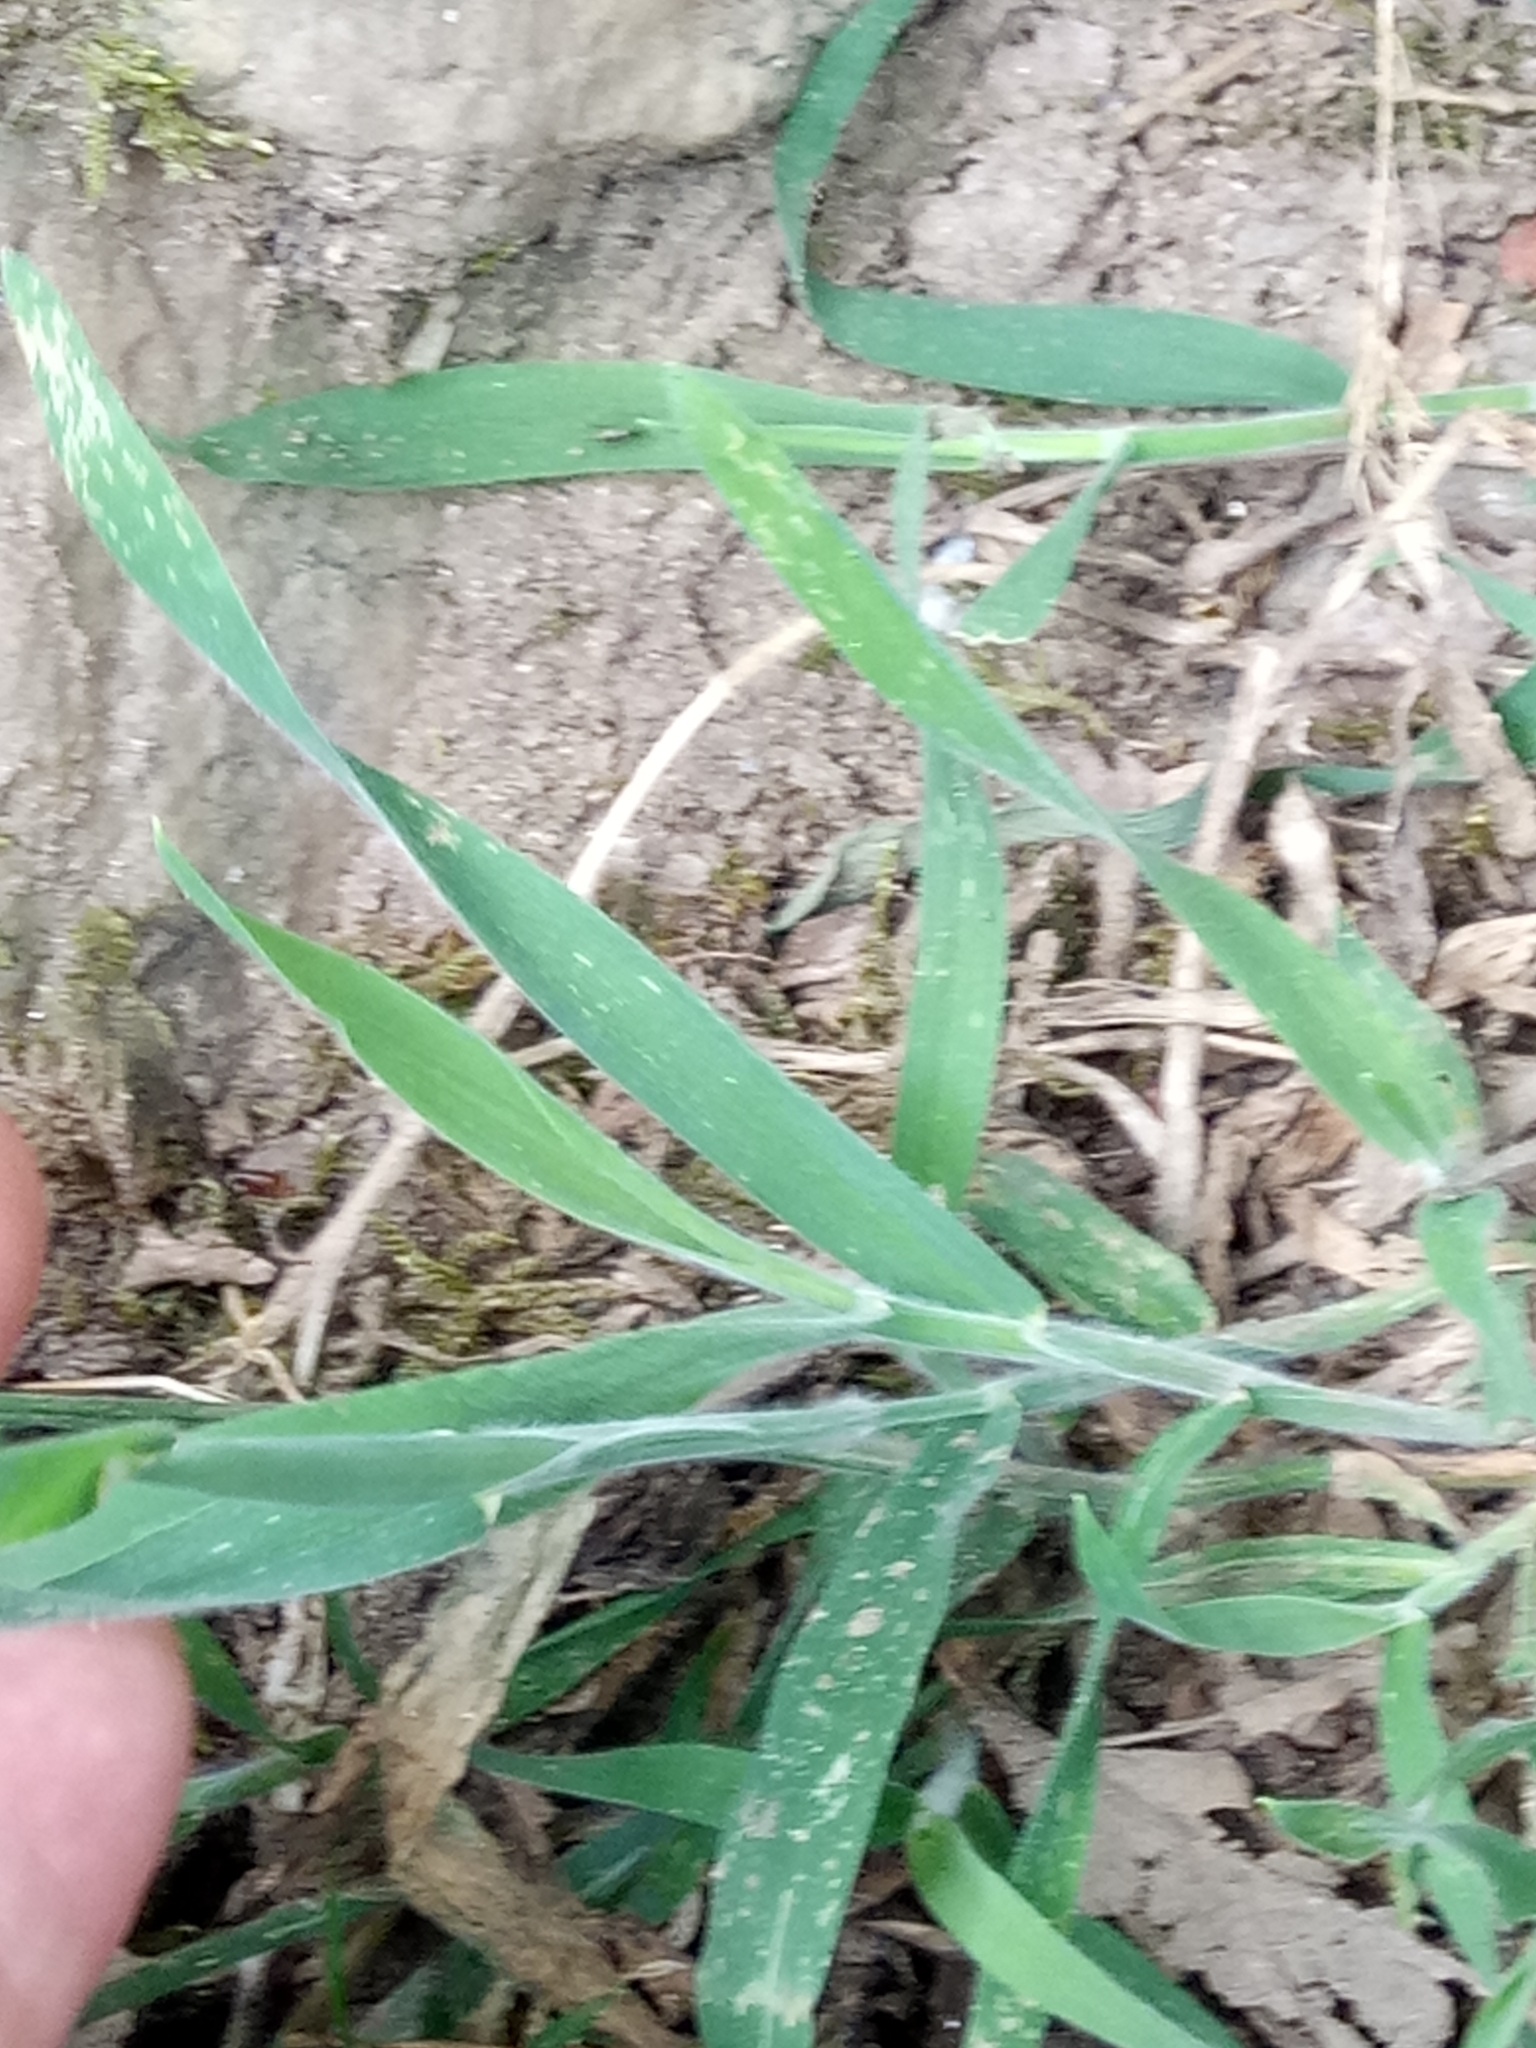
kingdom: Plantae
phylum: Tracheophyta
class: Liliopsida
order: Poales
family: Poaceae
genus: Holcus
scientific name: Holcus lanatus
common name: Yorkshire-fog
